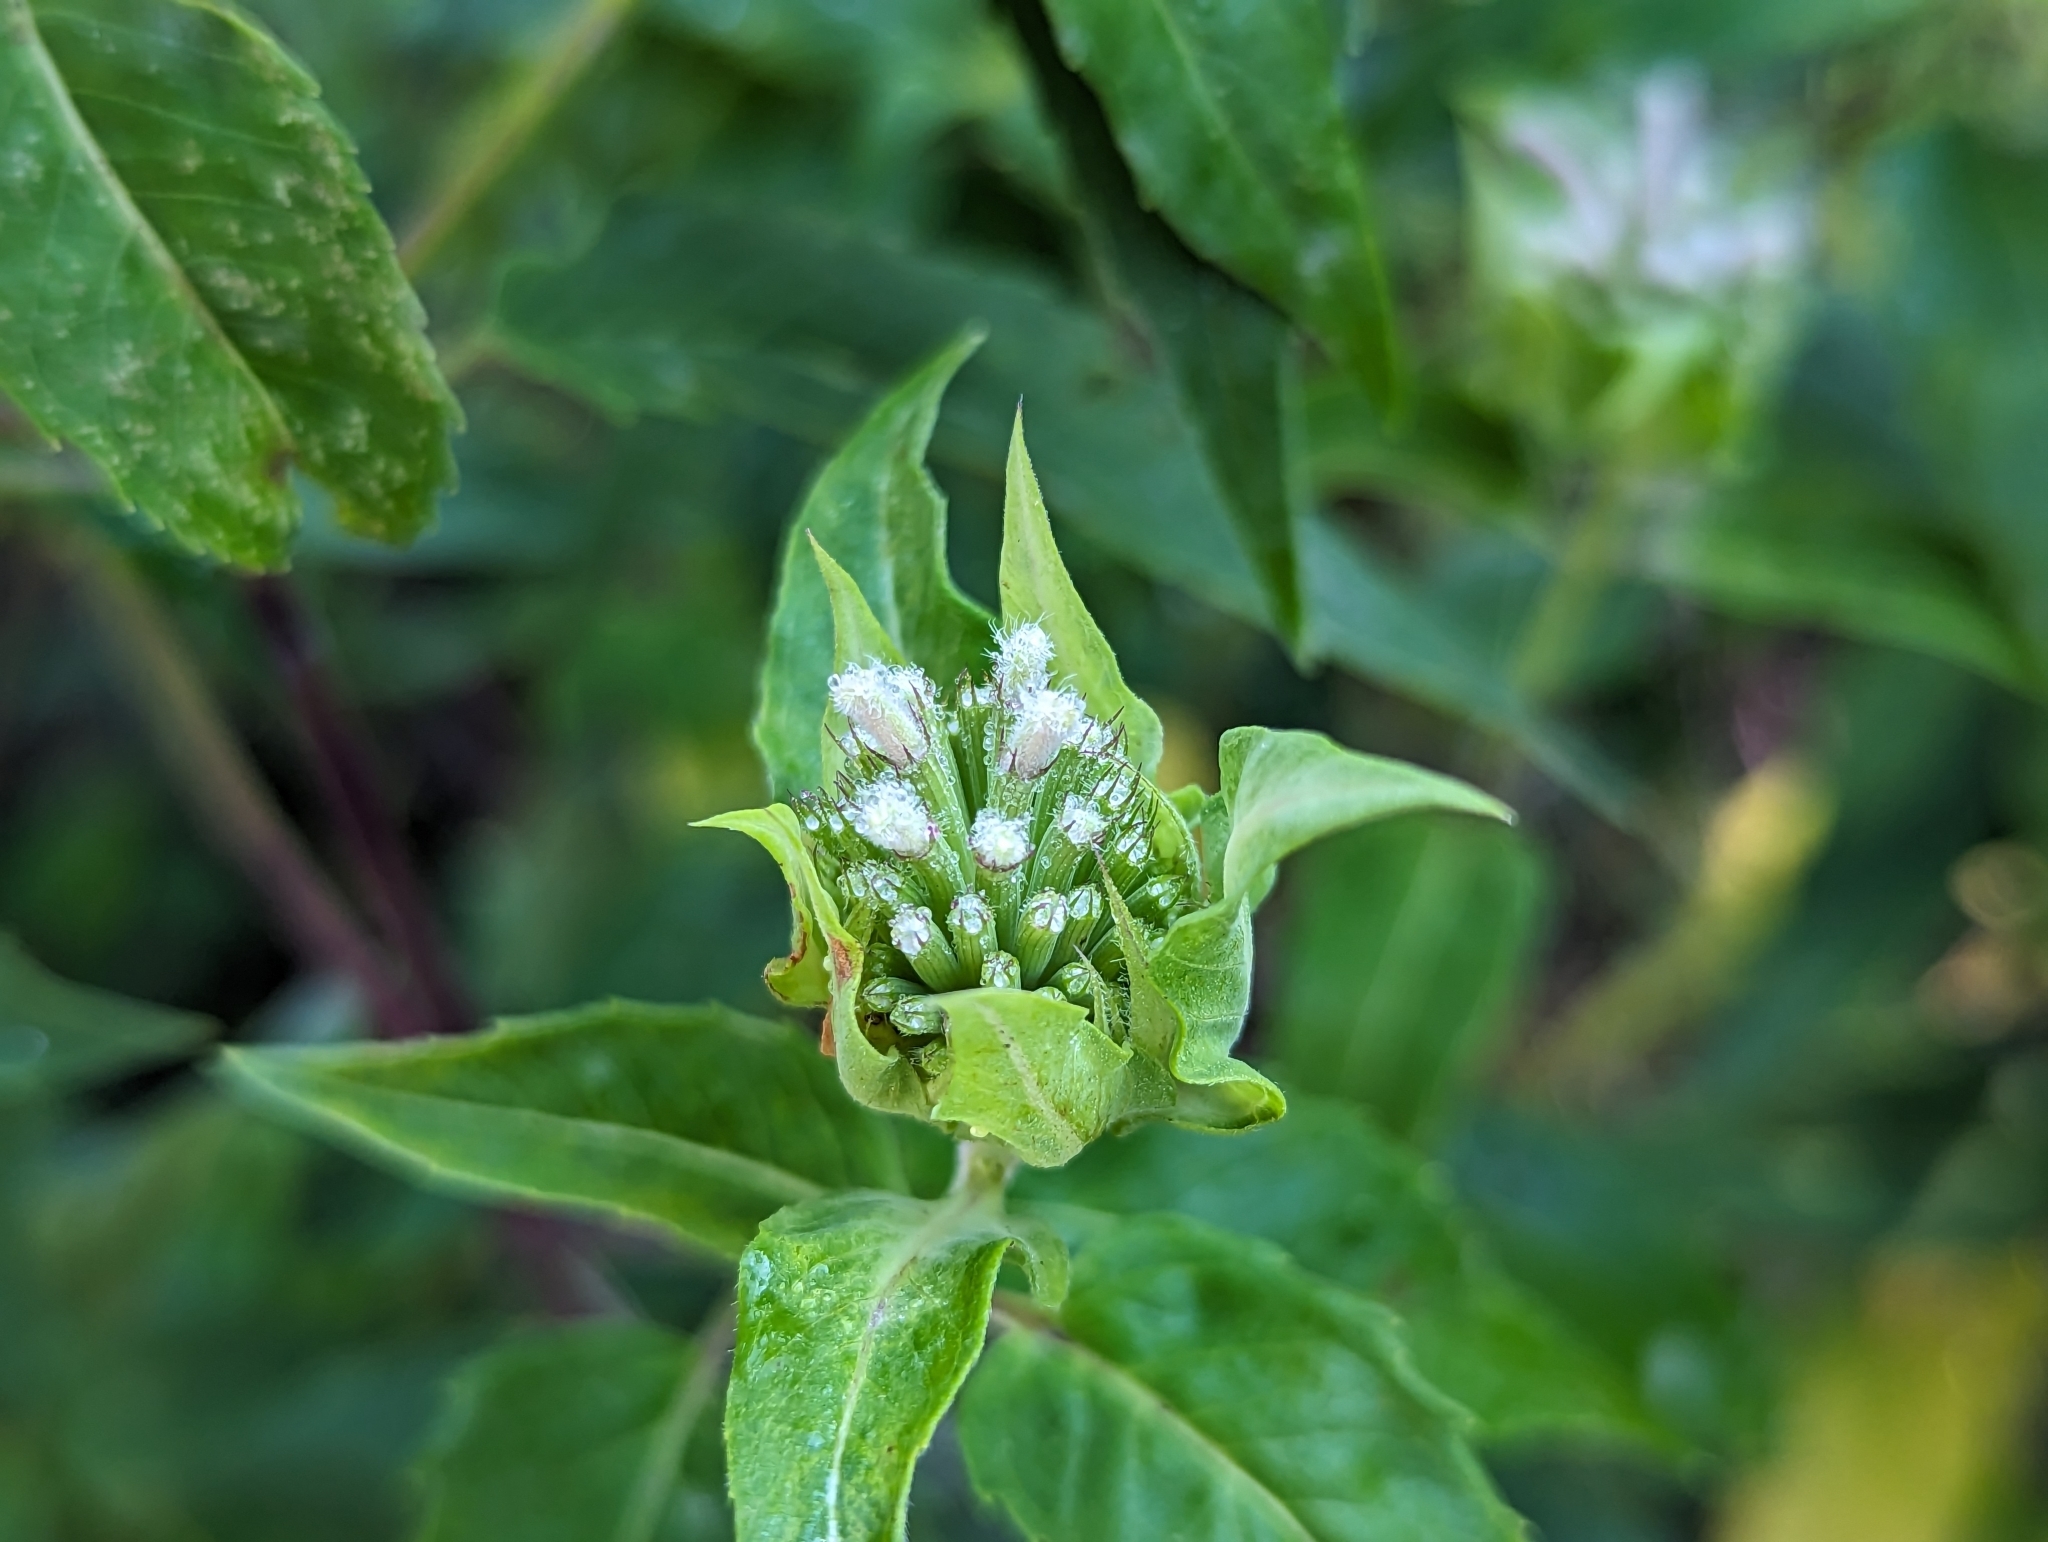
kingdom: Plantae
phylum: Tracheophyta
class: Magnoliopsida
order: Lamiales
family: Lamiaceae
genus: Monarda
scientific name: Monarda fistulosa
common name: Purple beebalm
